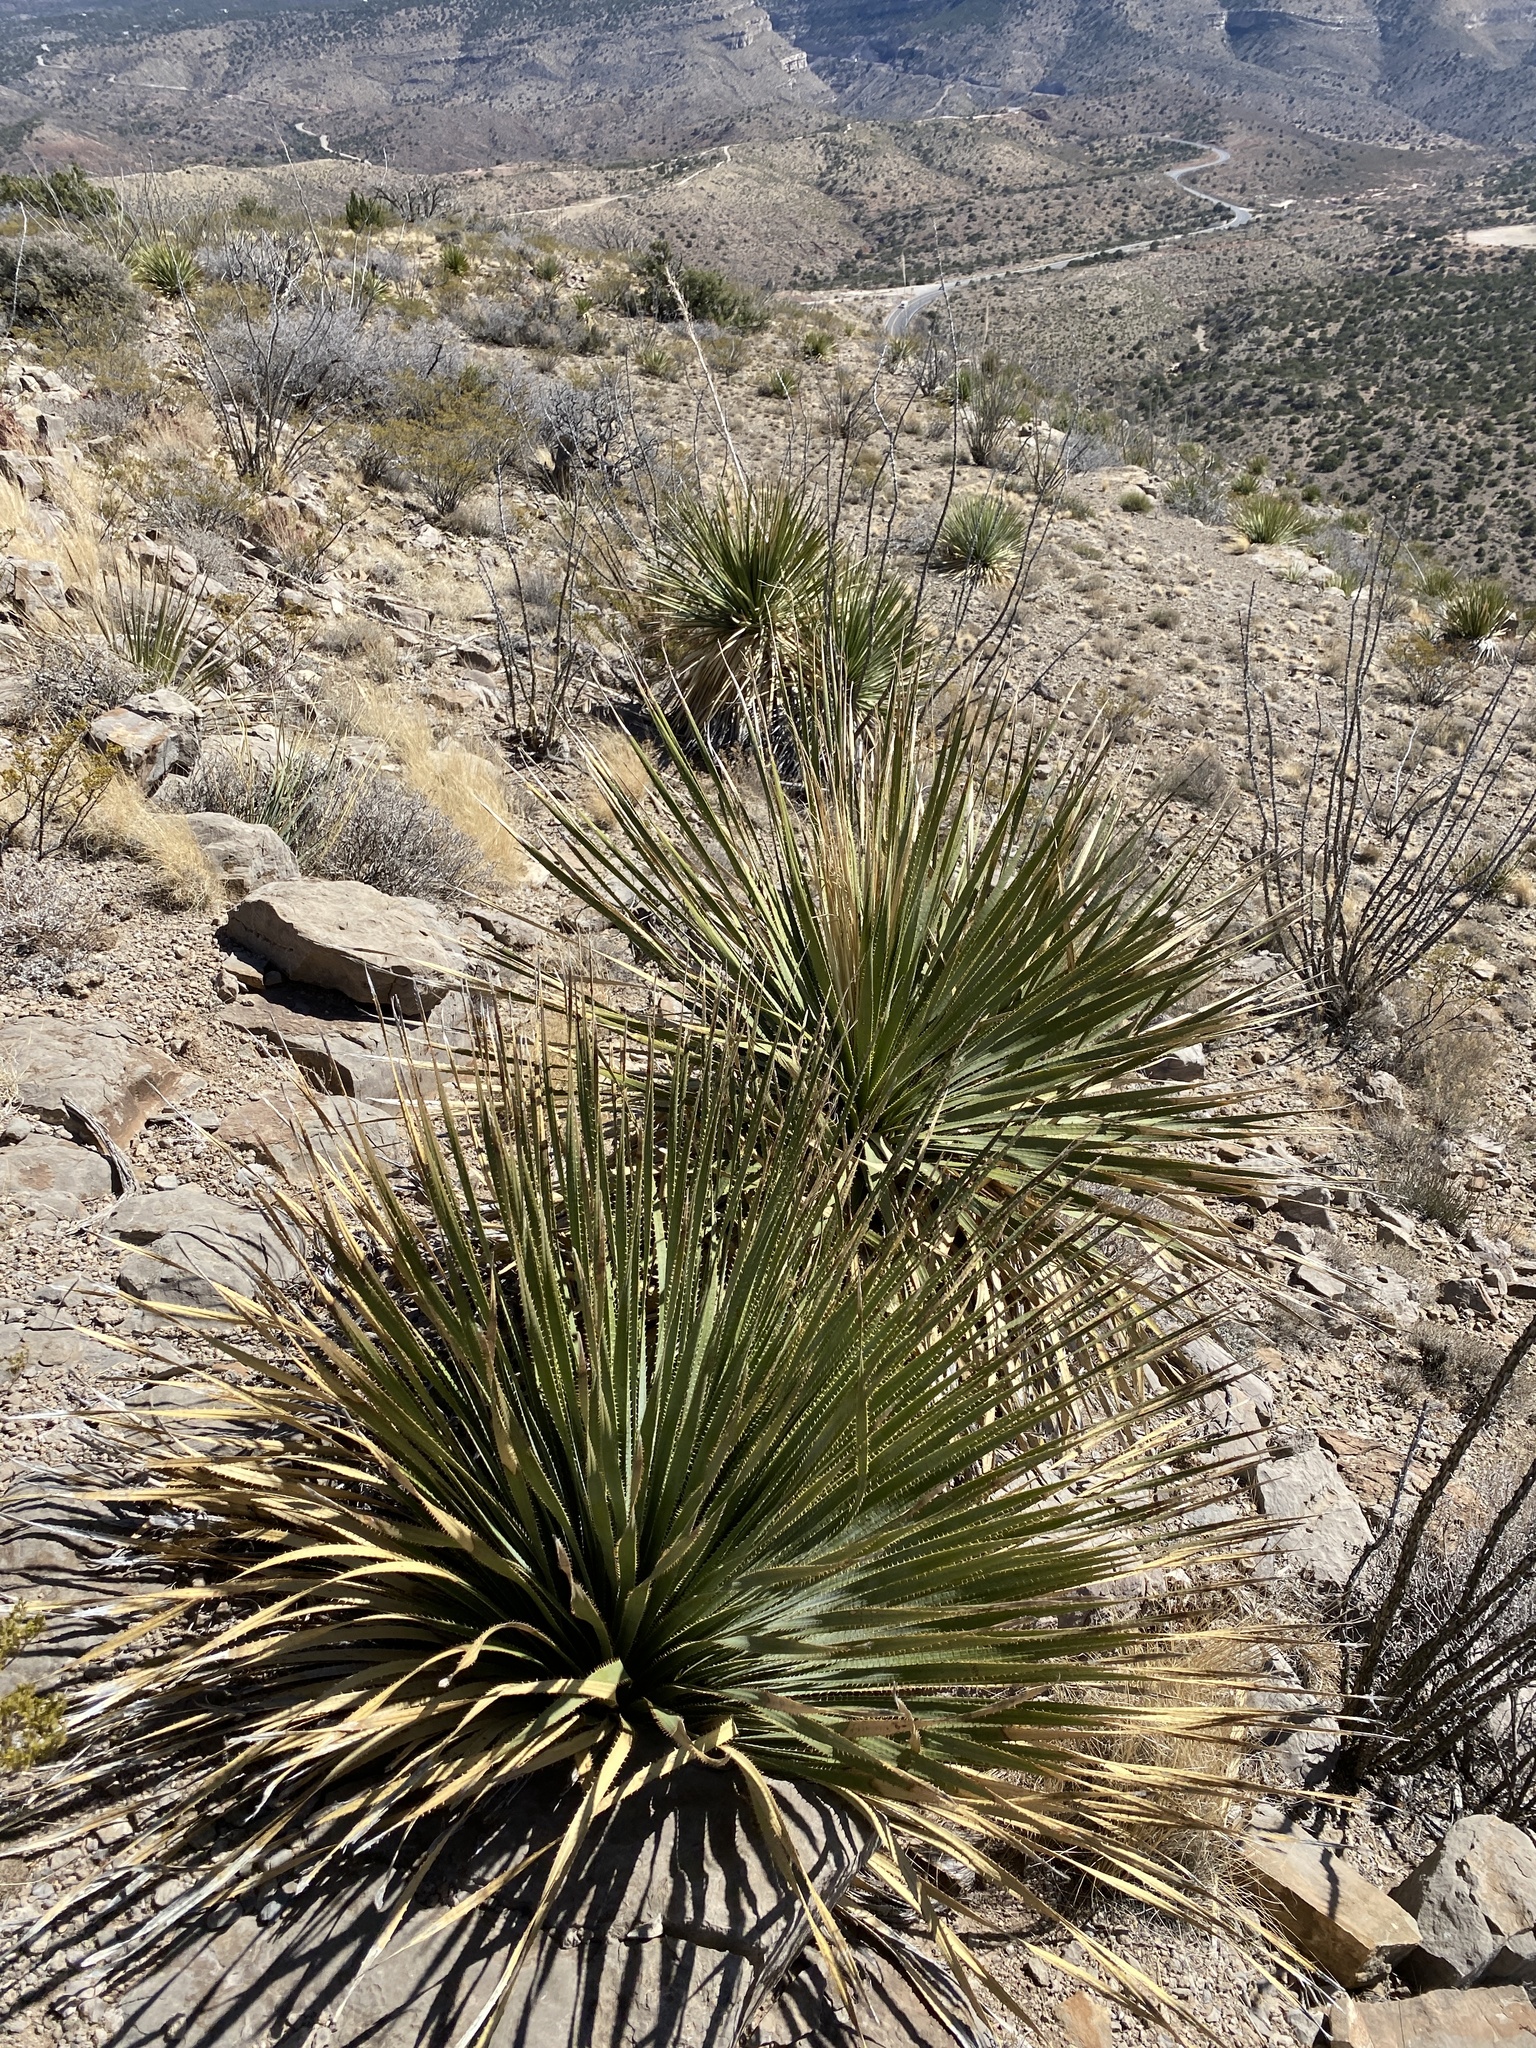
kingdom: Plantae
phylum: Tracheophyta
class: Liliopsida
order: Asparagales
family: Asparagaceae
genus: Dasylirion
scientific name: Dasylirion wheeleri
